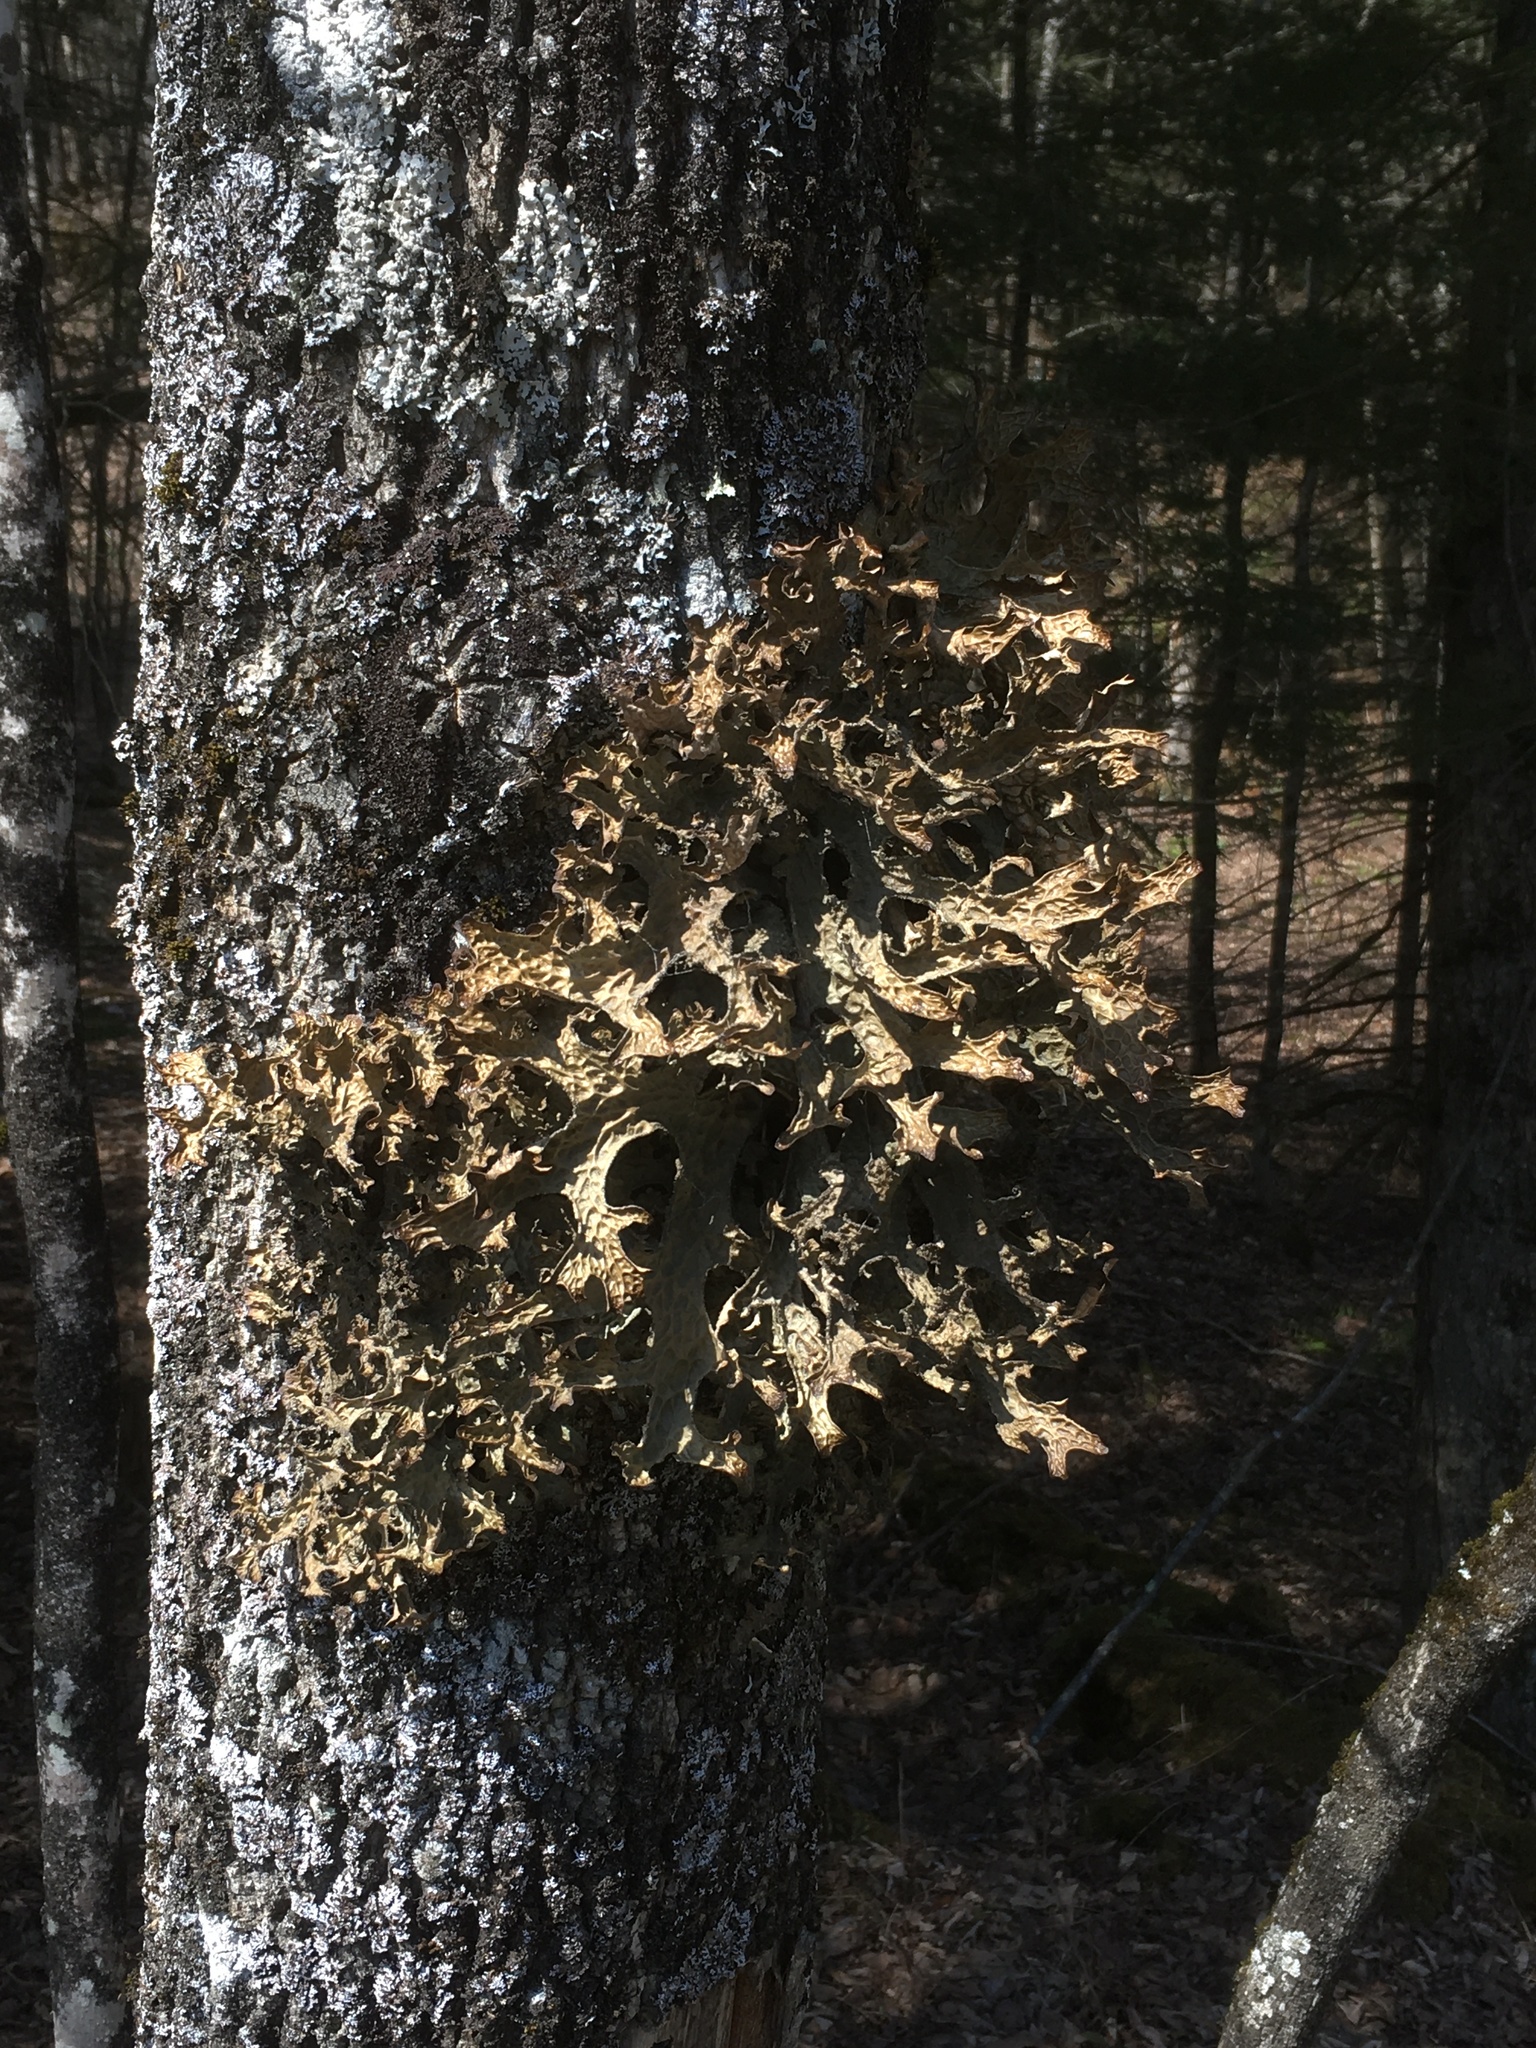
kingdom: Fungi
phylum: Ascomycota
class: Lecanoromycetes
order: Peltigerales
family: Lobariaceae
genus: Lobaria
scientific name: Lobaria pulmonaria
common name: Lungwort
